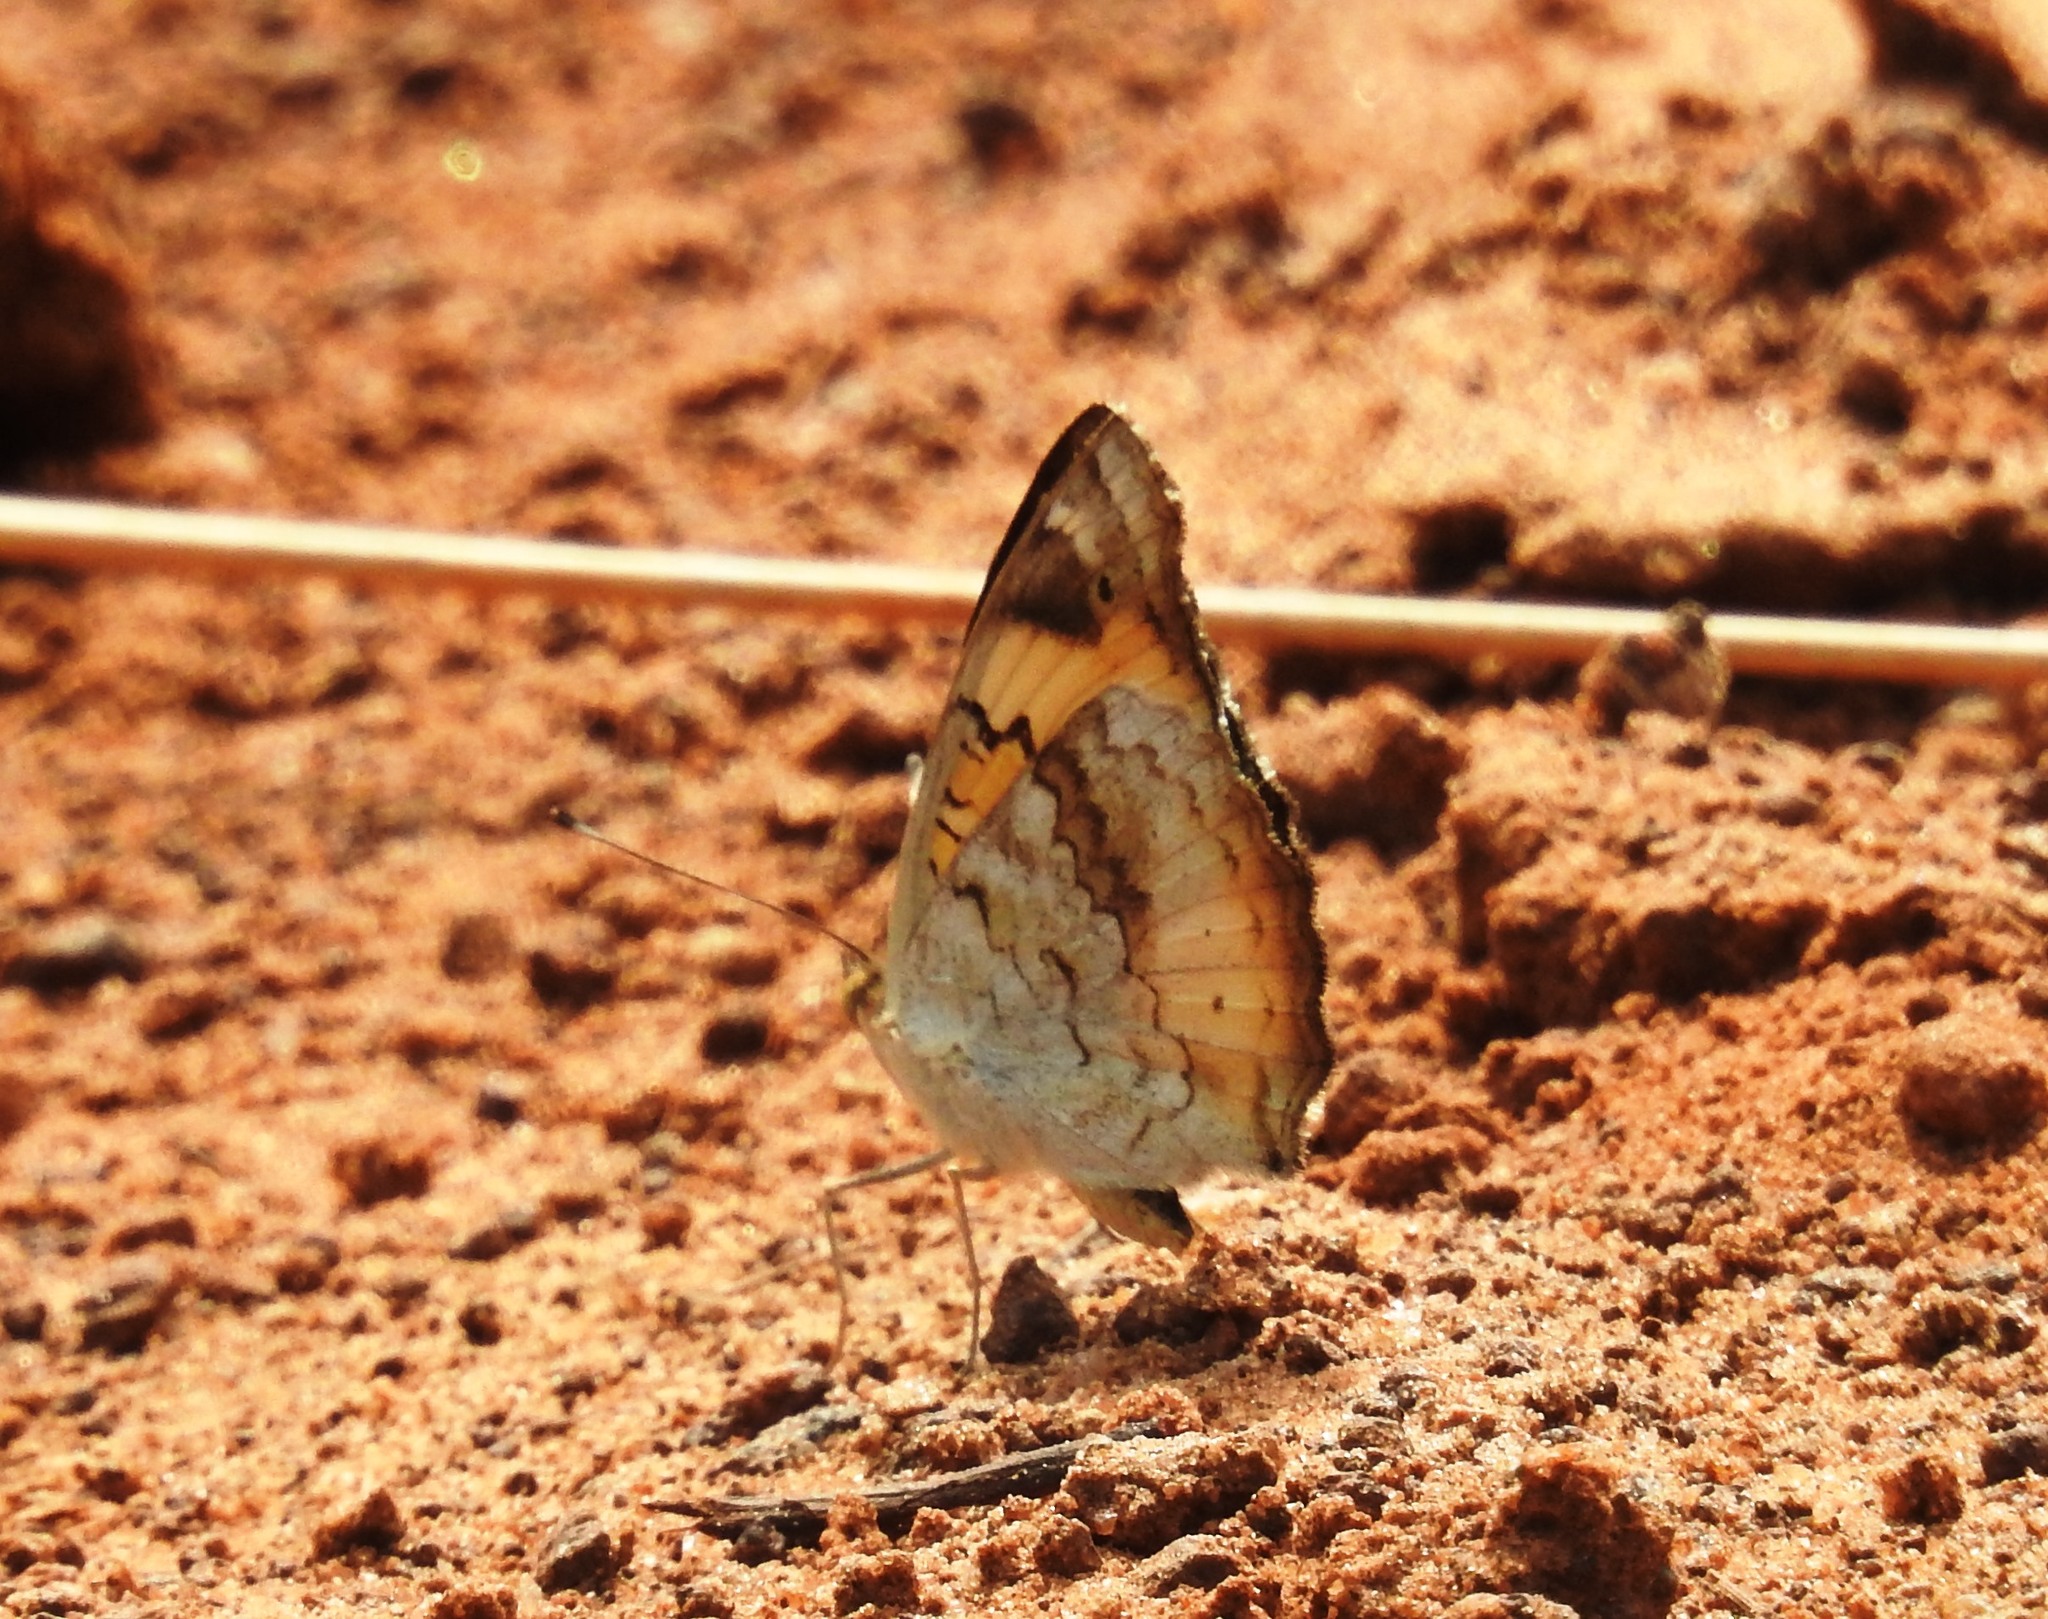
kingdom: Animalia
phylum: Arthropoda
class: Insecta
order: Lepidoptera
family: Nymphalidae
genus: Junonia
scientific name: Junonia hierta
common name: Yellow pansy
